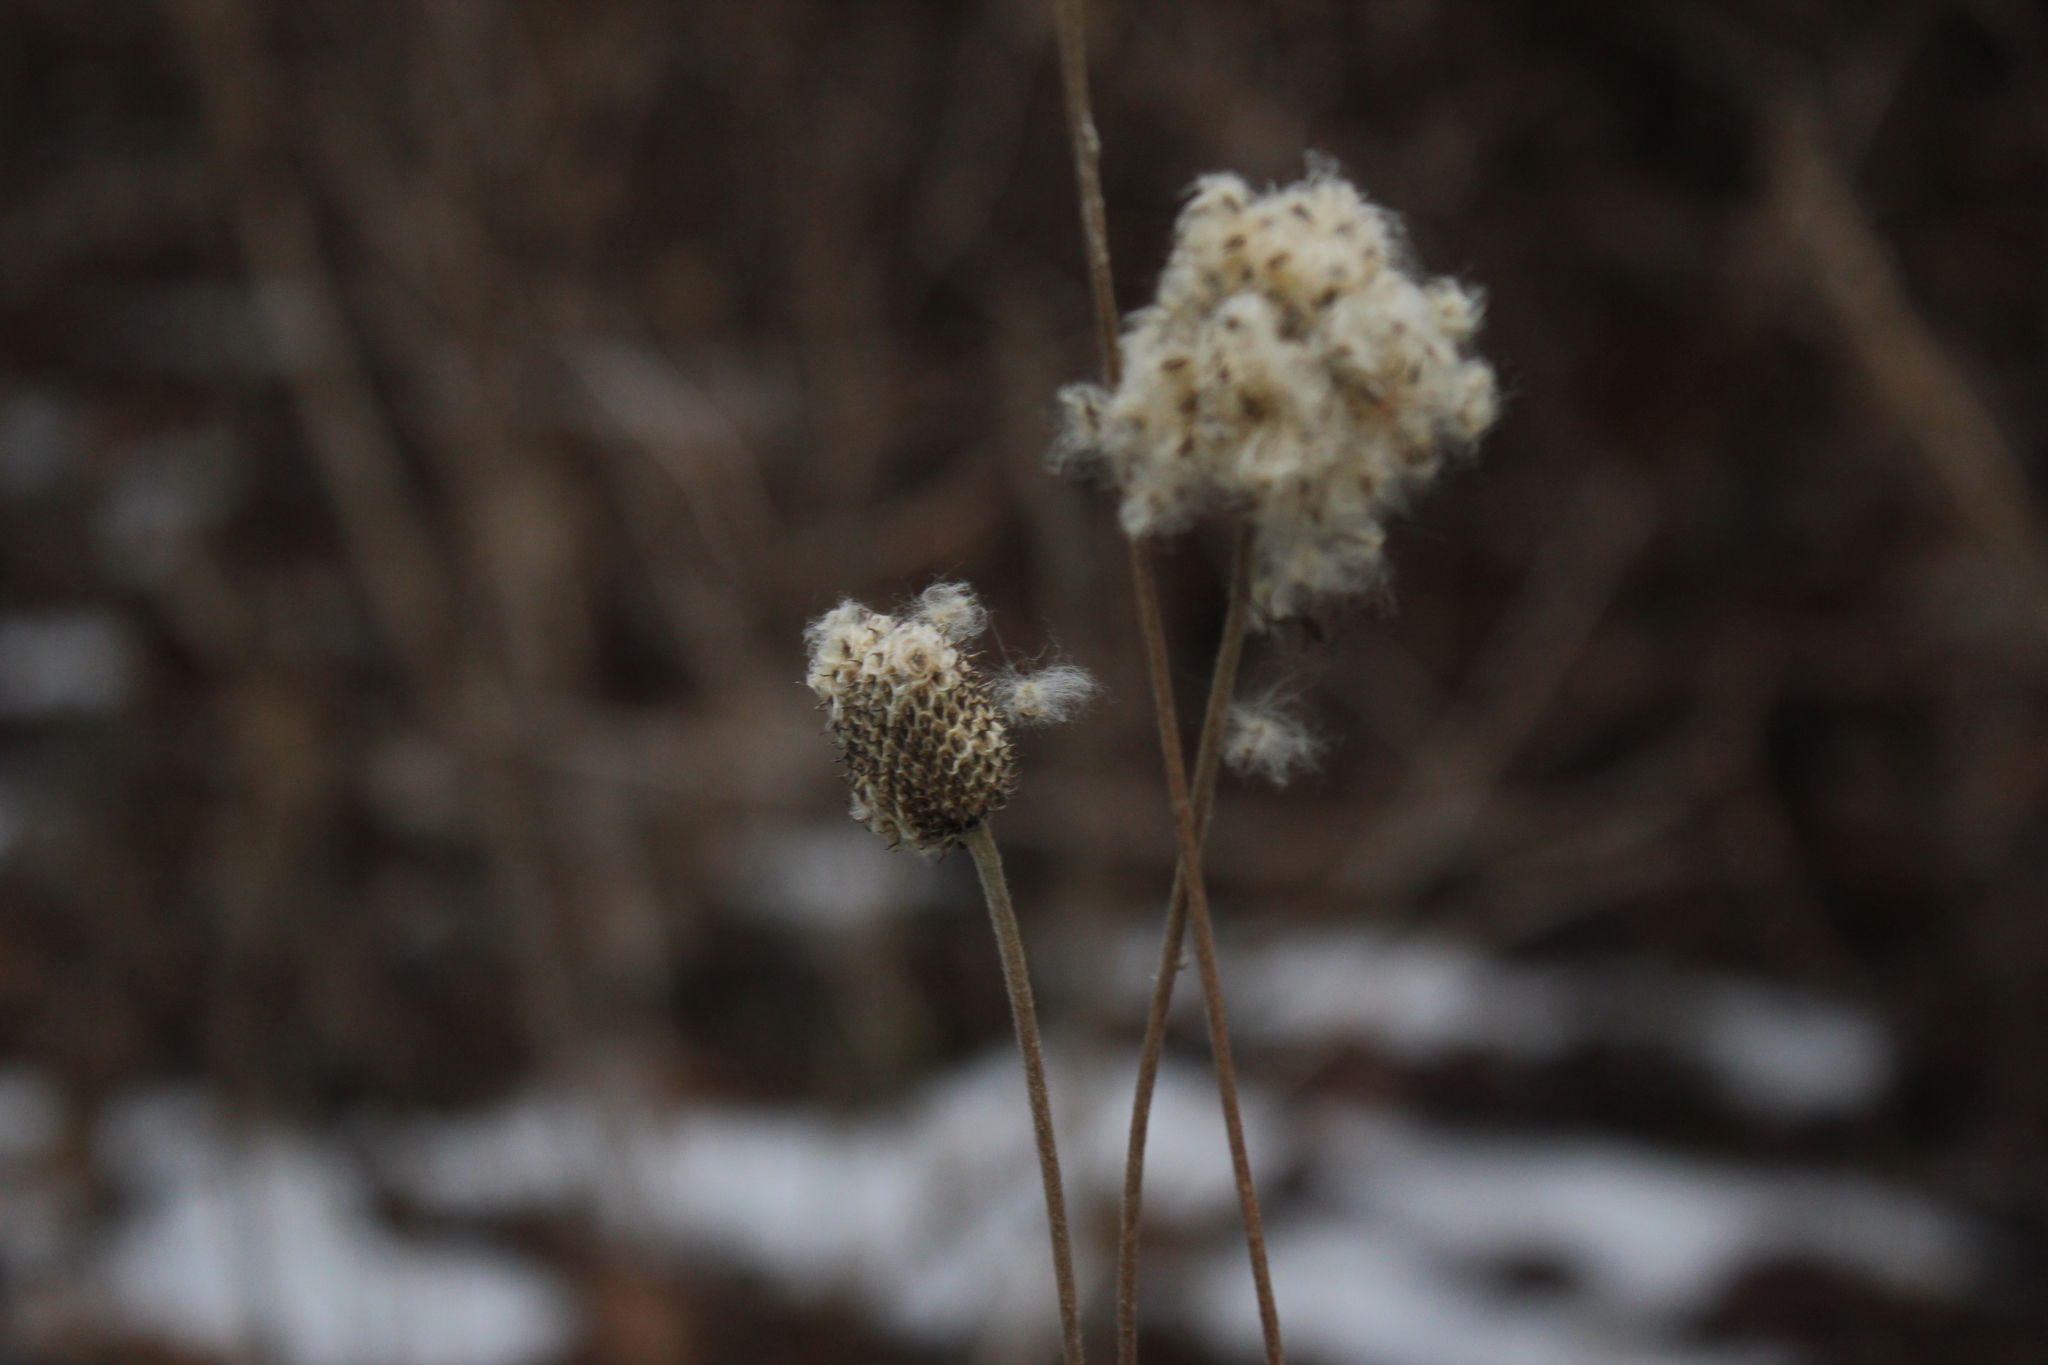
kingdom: Plantae
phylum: Tracheophyta
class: Magnoliopsida
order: Ranunculales
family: Ranunculaceae
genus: Anemone
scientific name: Anemone virginiana
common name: Tall anemone
